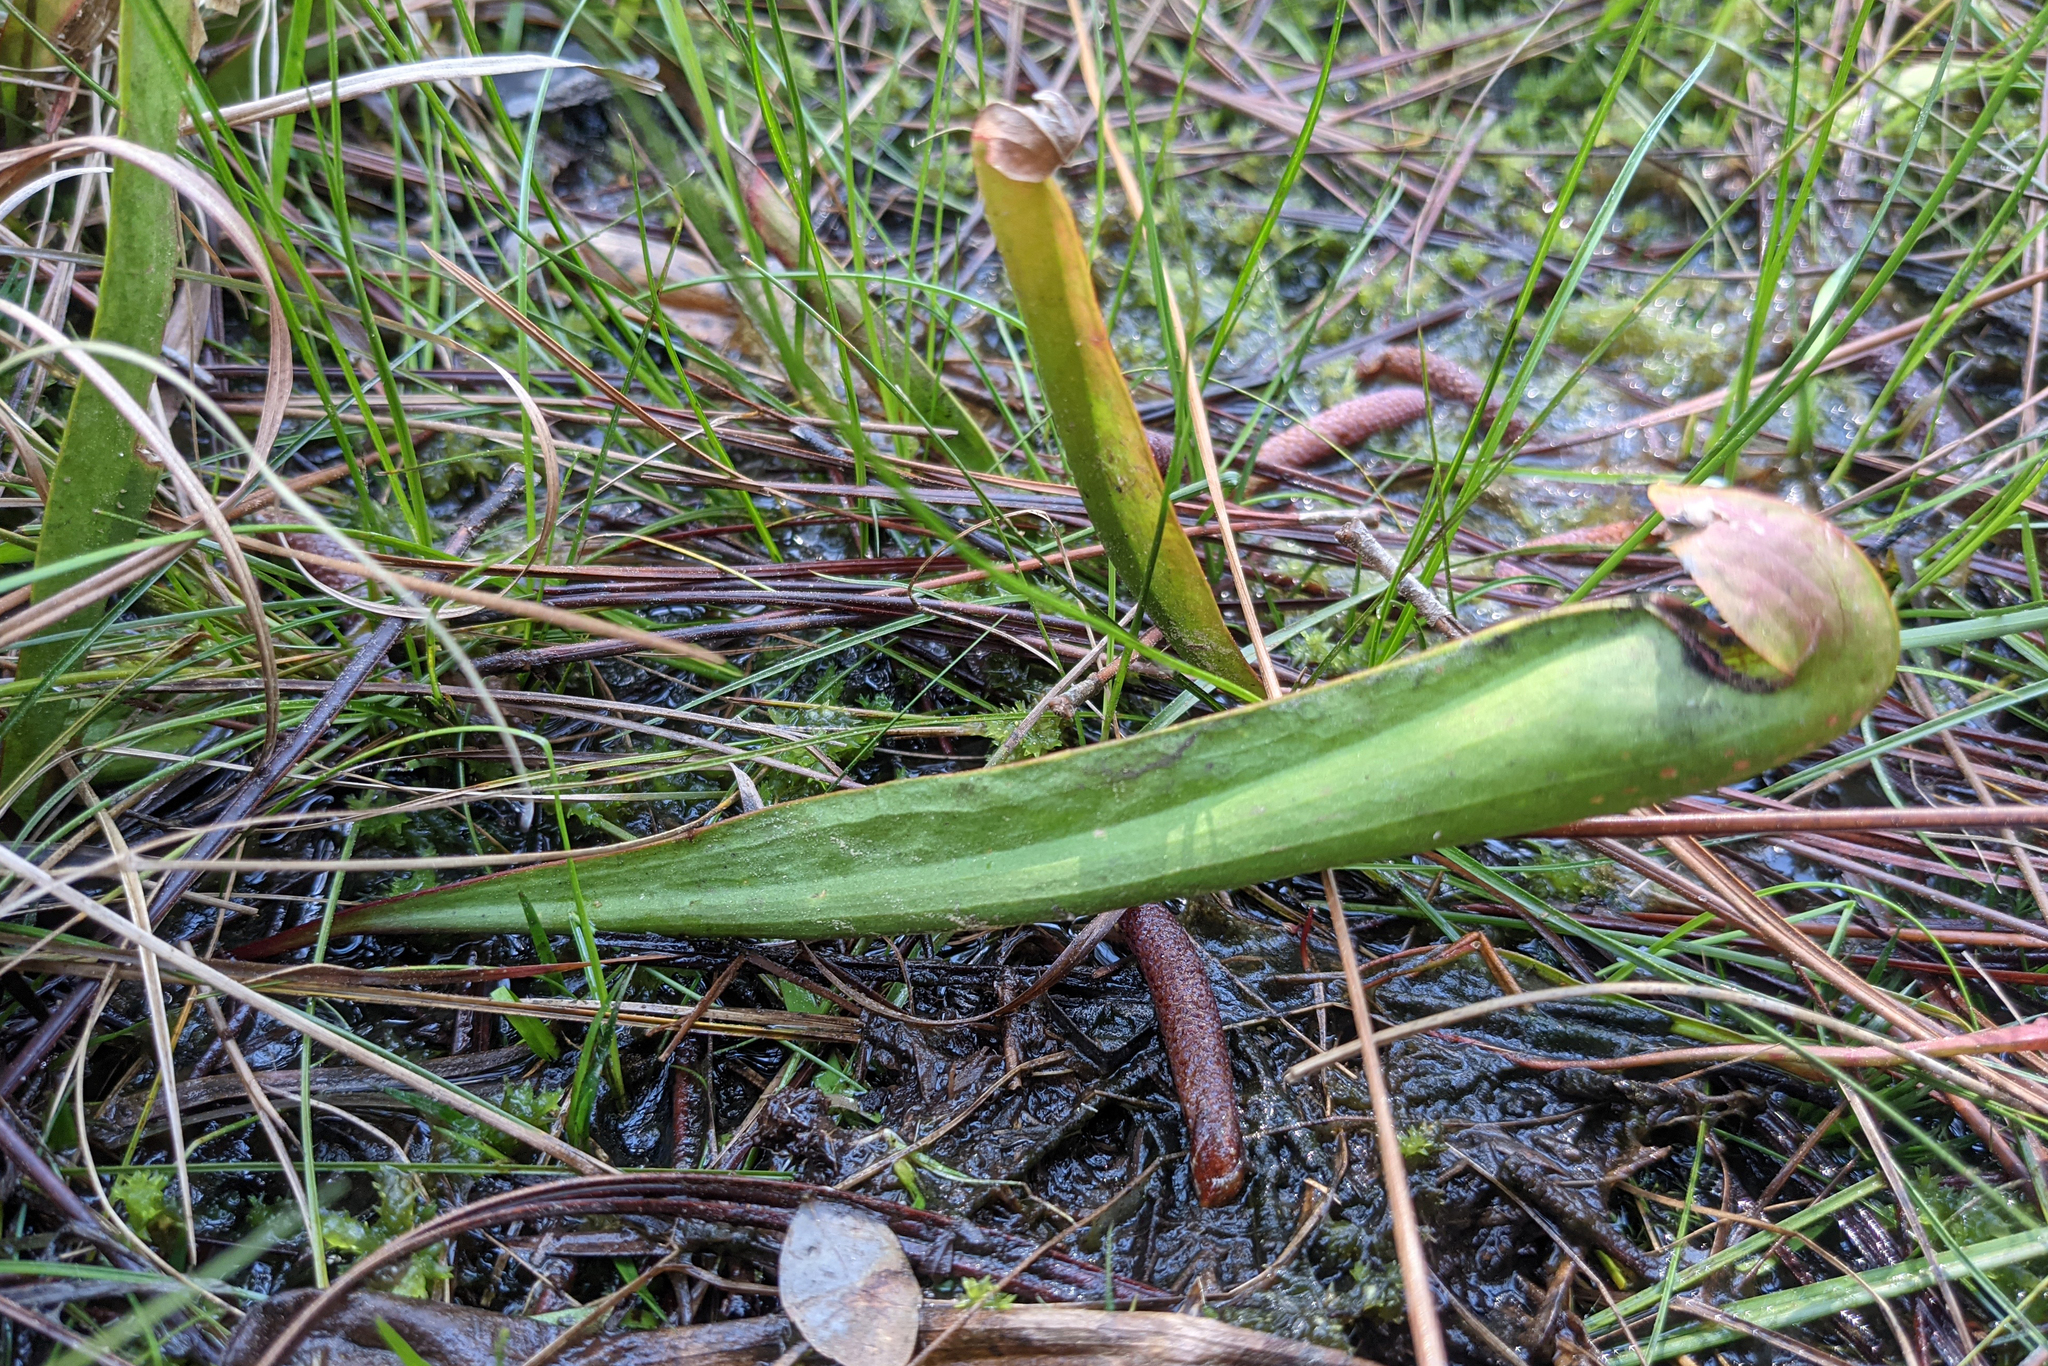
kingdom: Plantae
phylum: Tracheophyta
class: Magnoliopsida
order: Ericales
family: Sarraceniaceae
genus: Sarracenia
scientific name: Sarracenia minor
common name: Rainhat-trumpet
